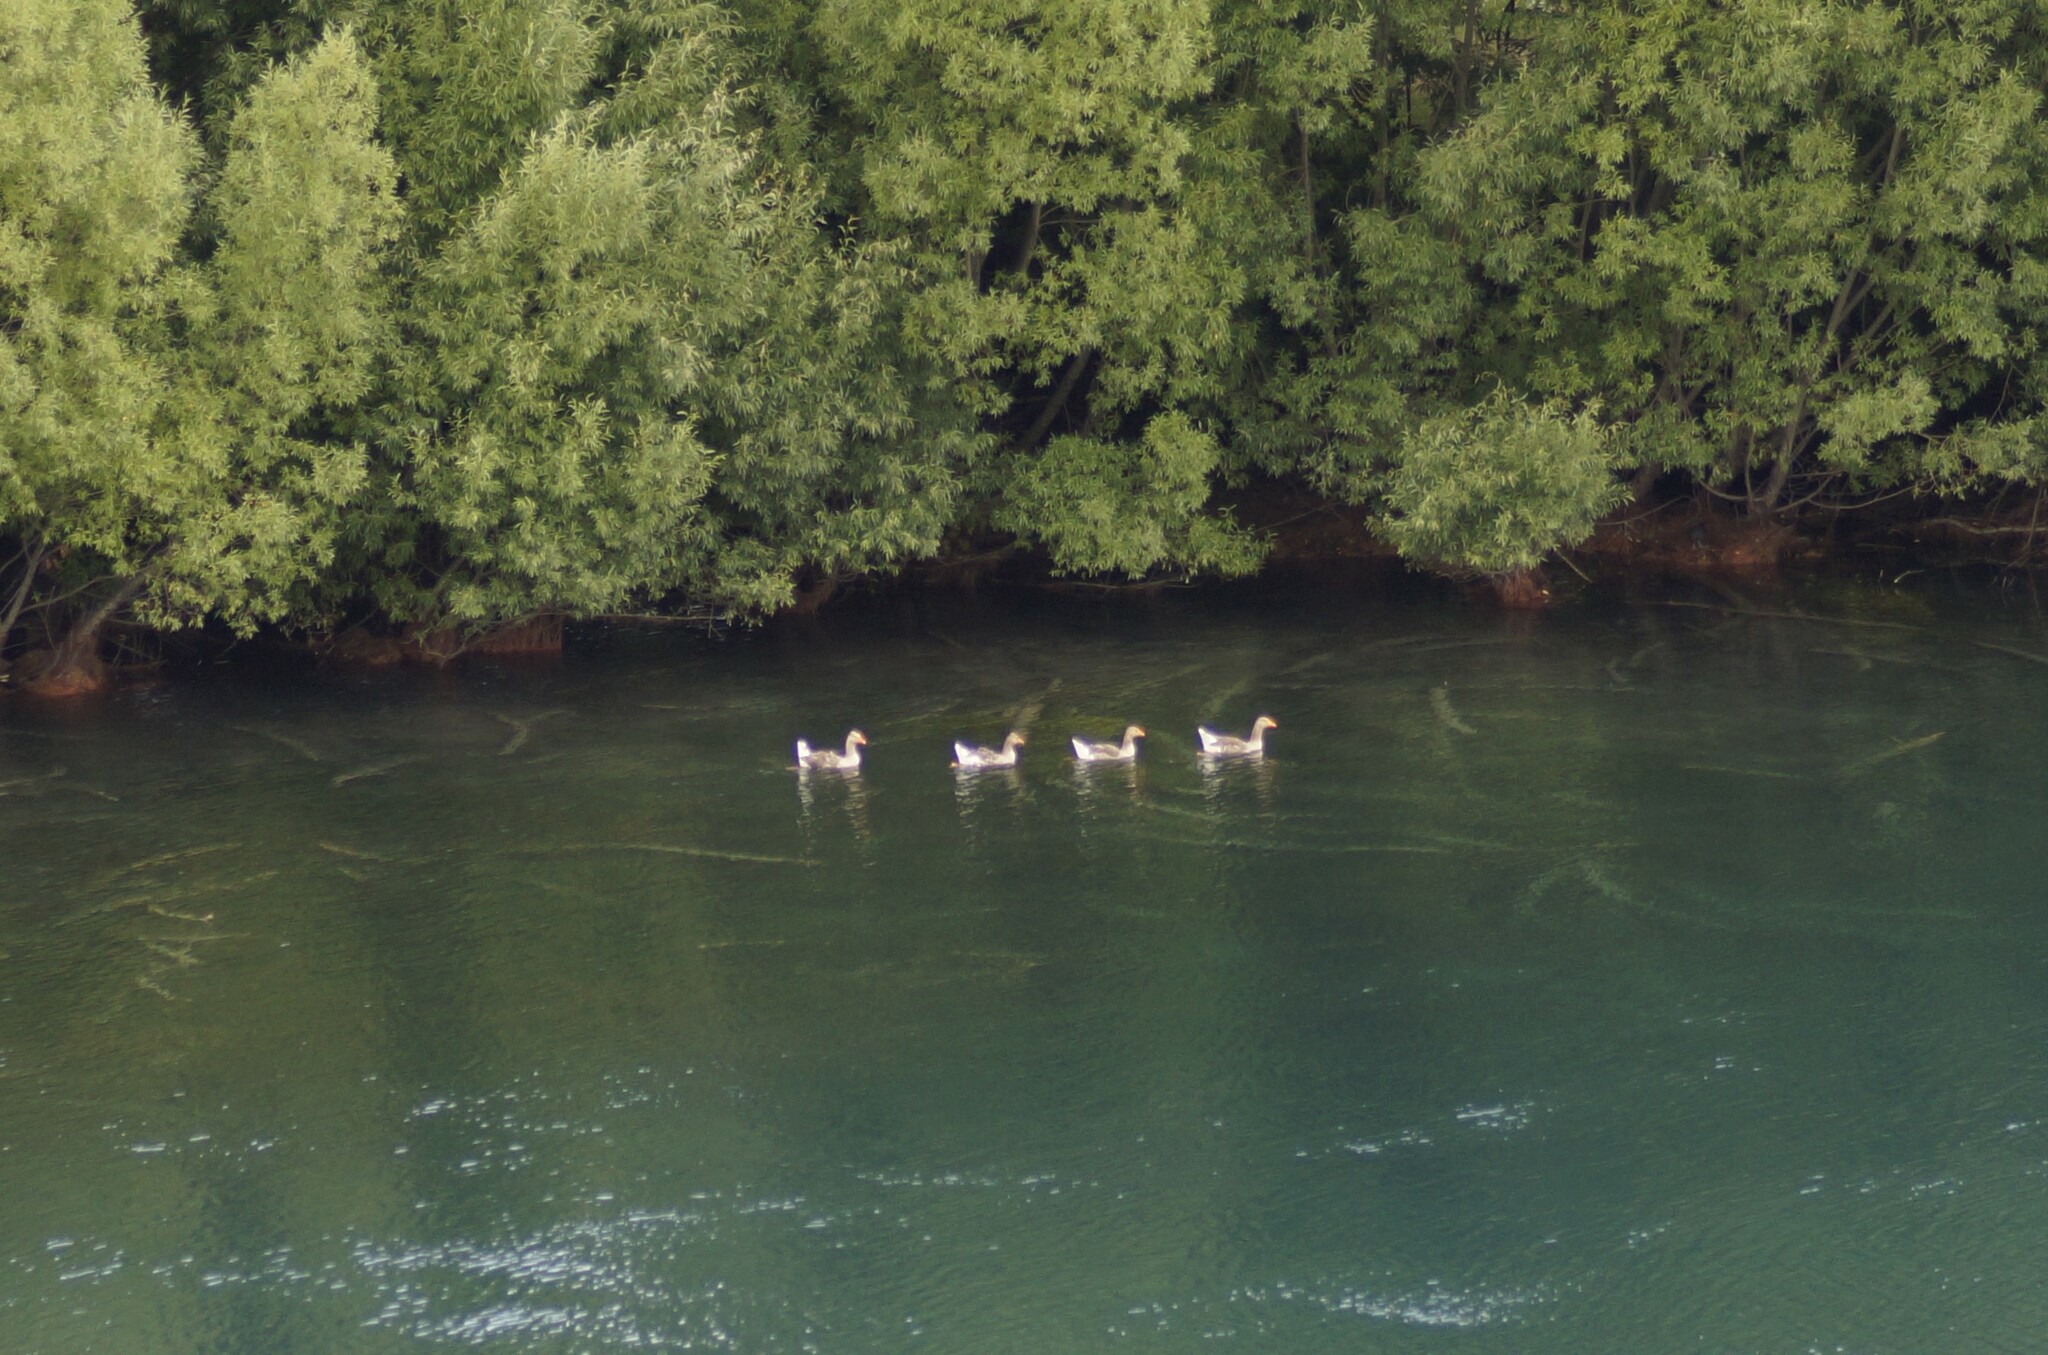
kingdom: Animalia
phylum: Chordata
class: Aves
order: Anseriformes
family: Anatidae
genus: Anser
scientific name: Anser anser
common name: Greylag goose
